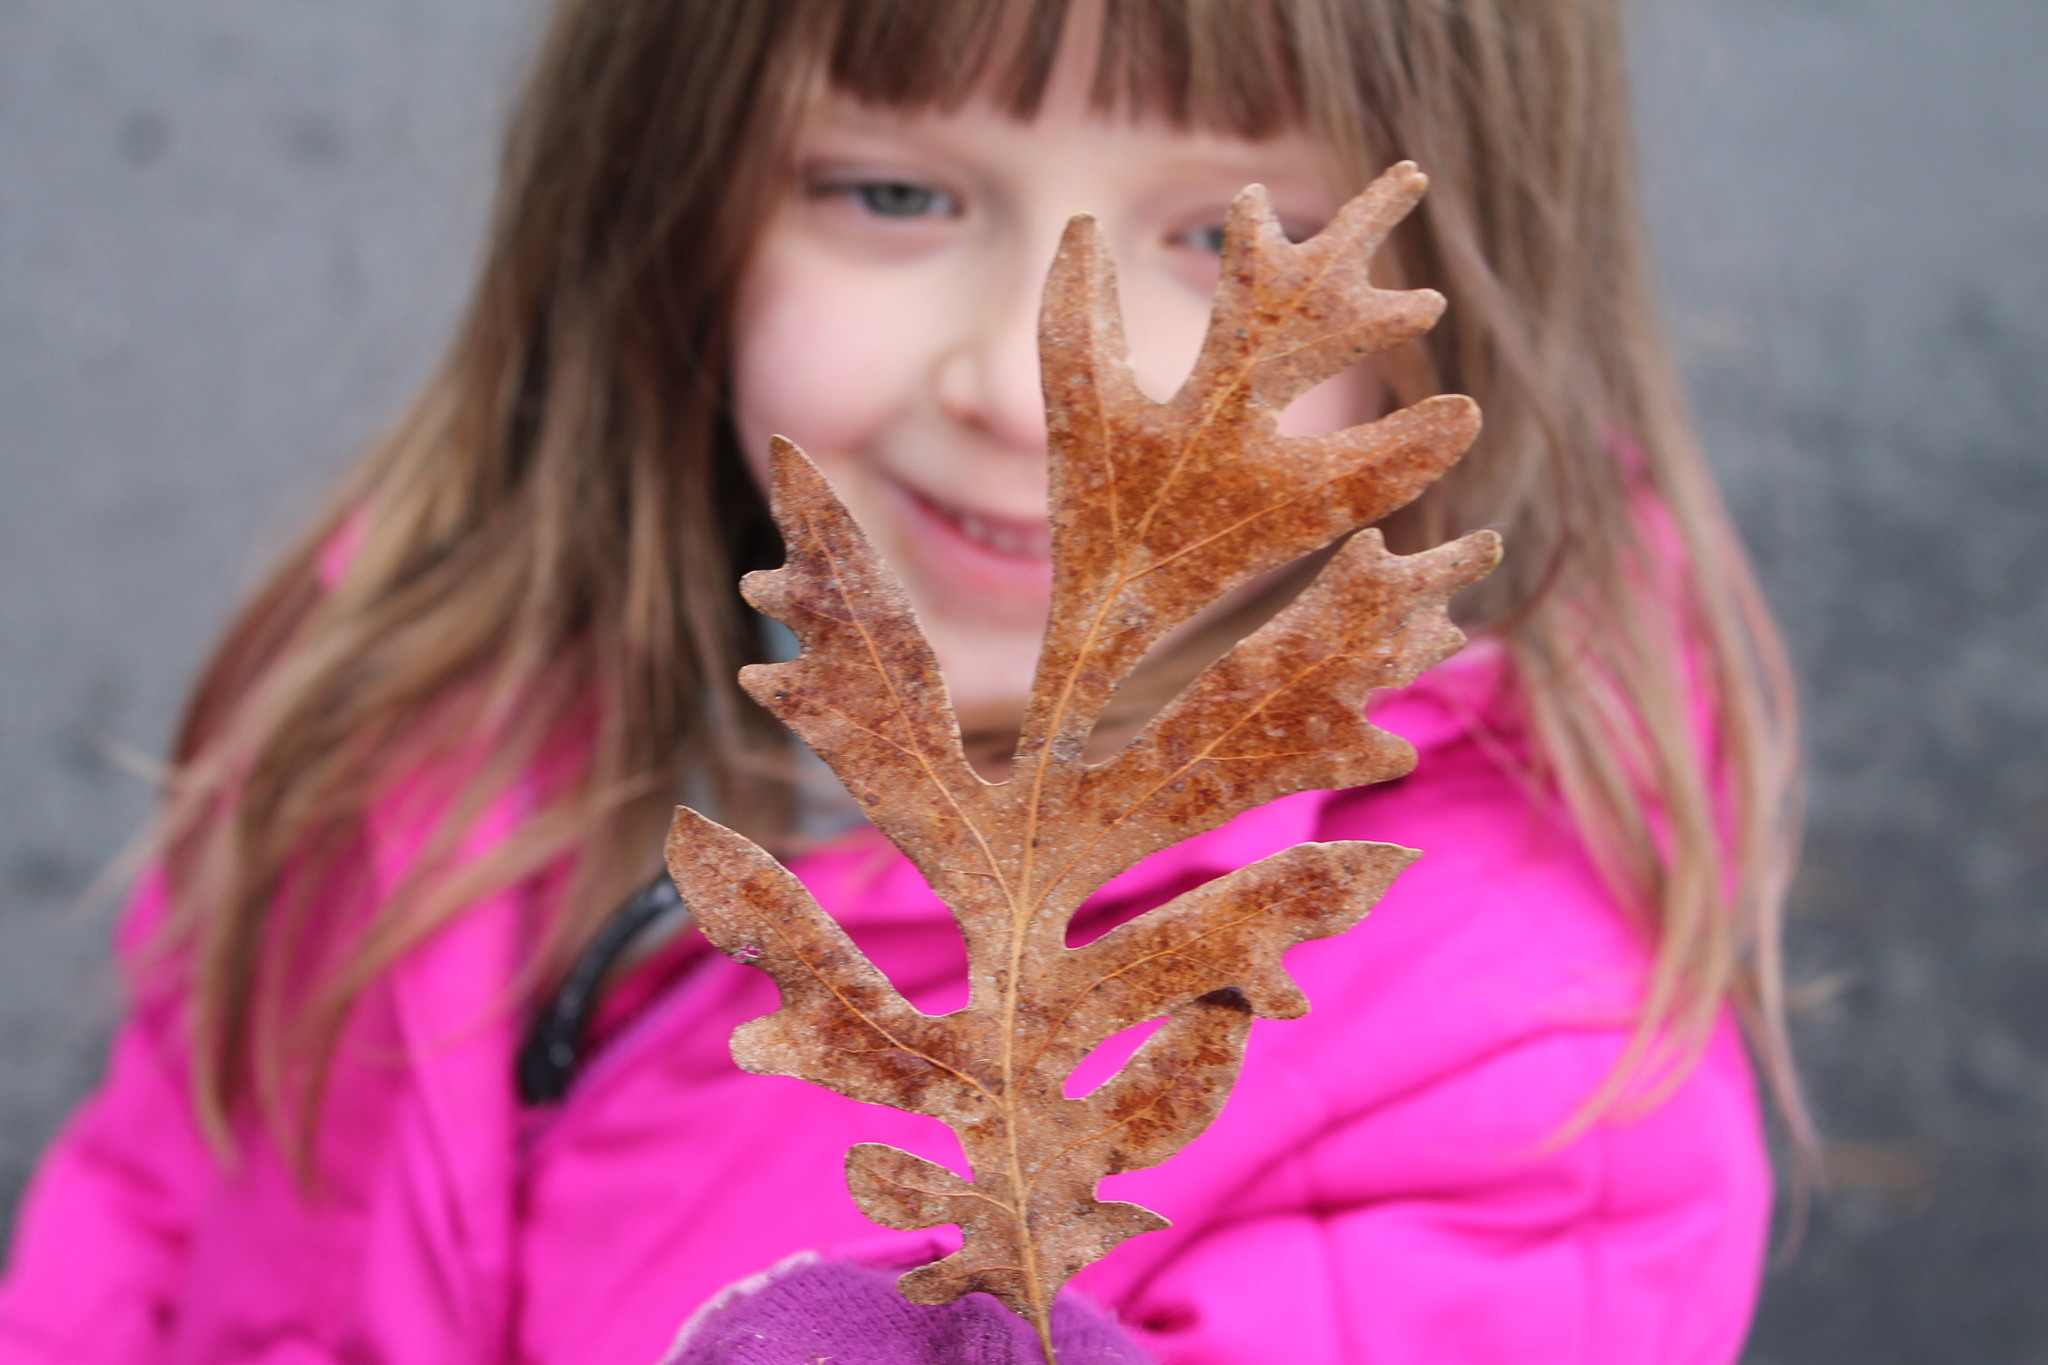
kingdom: Plantae
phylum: Tracheophyta
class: Magnoliopsida
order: Fagales
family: Fagaceae
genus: Quercus
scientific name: Quercus alba
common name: White oak
